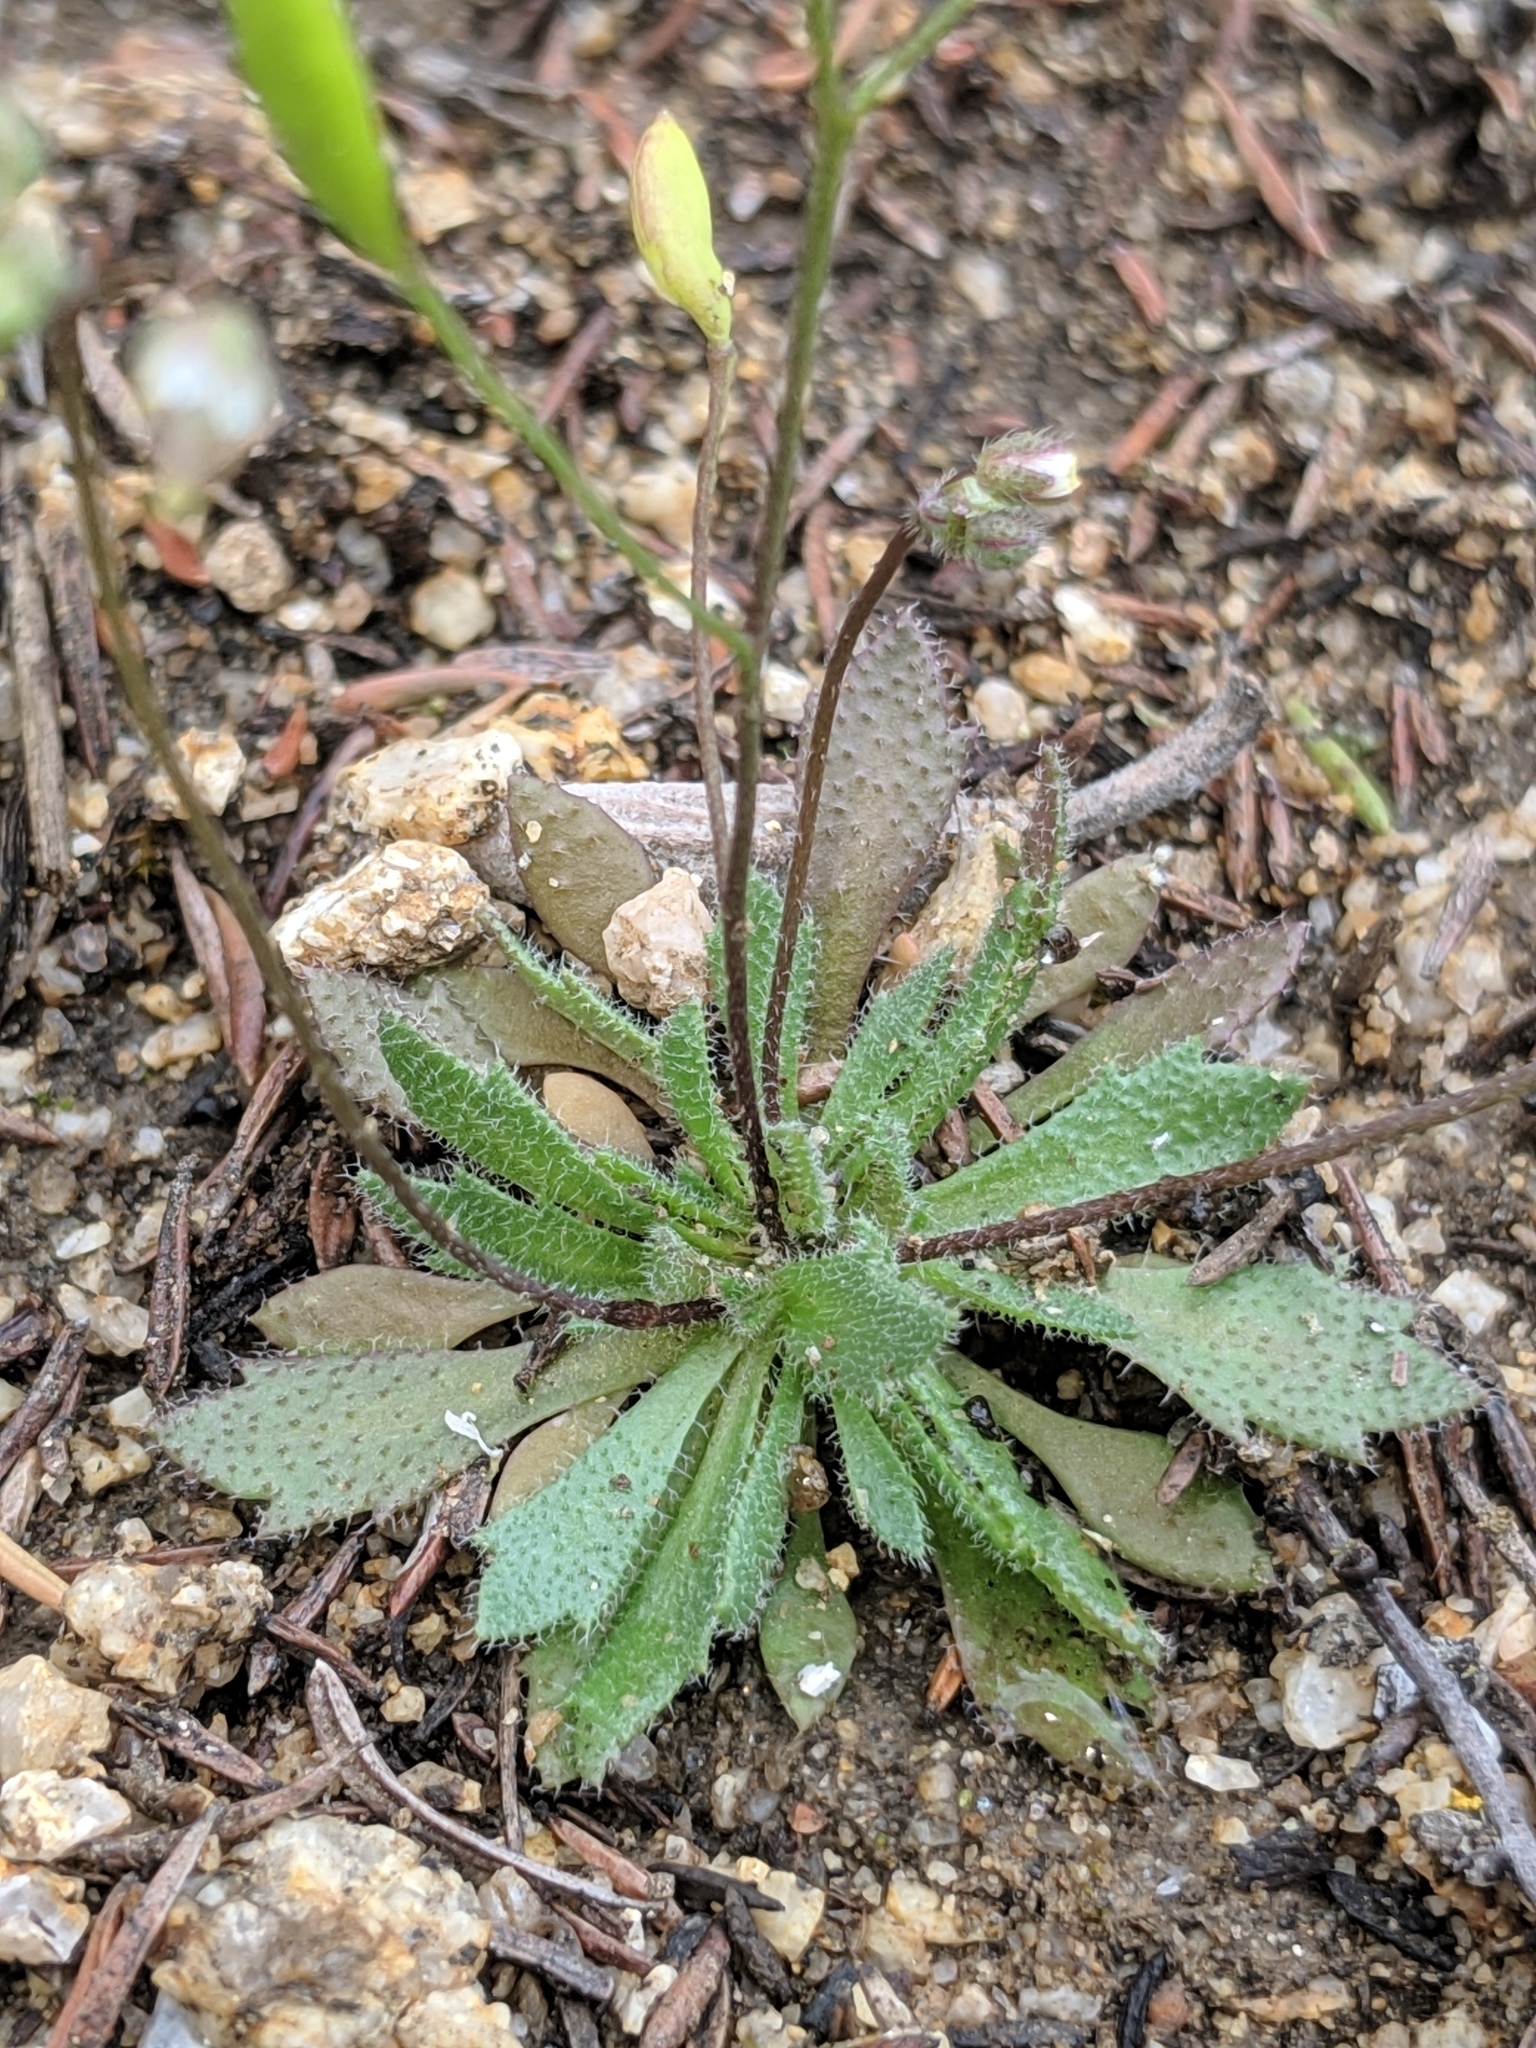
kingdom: Plantae
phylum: Tracheophyta
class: Magnoliopsida
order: Brassicales
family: Brassicaceae
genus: Draba
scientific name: Draba verna
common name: Spring draba
